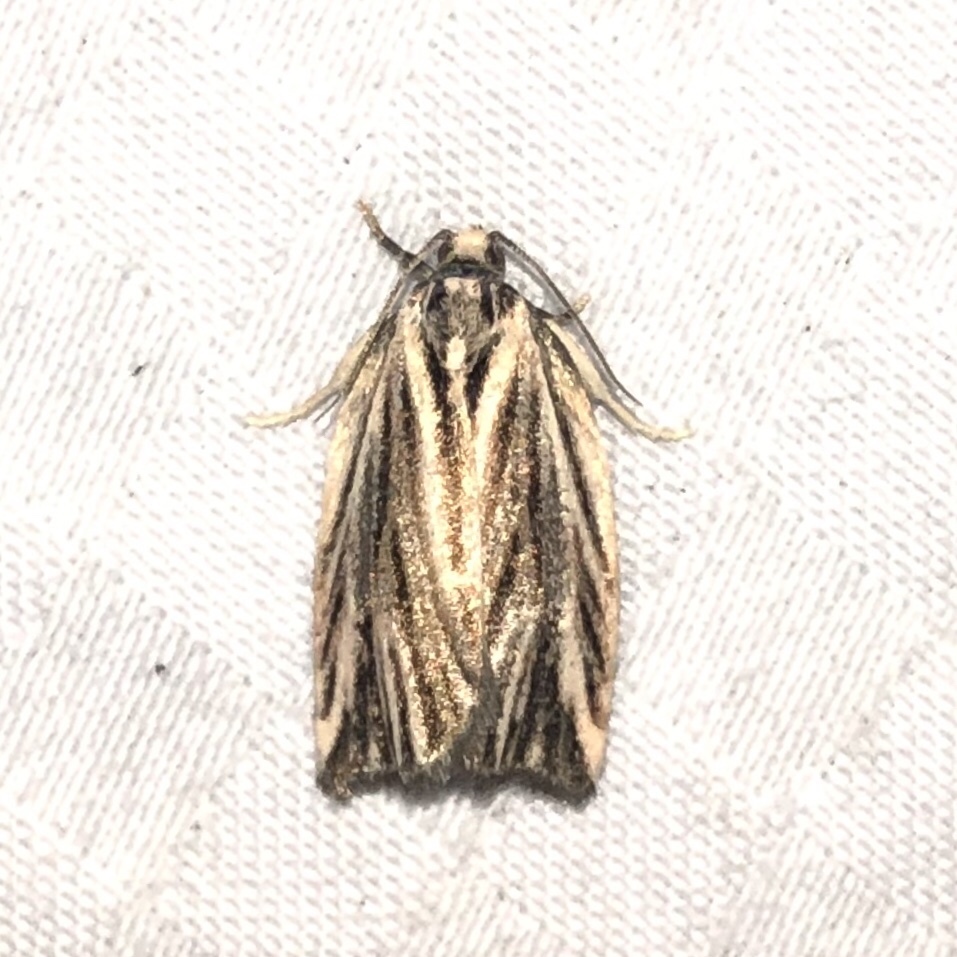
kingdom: Animalia
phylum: Arthropoda
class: Insecta
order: Lepidoptera
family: Tortricidae
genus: Archips
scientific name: Archips strianus
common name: Striated tortrix moth
